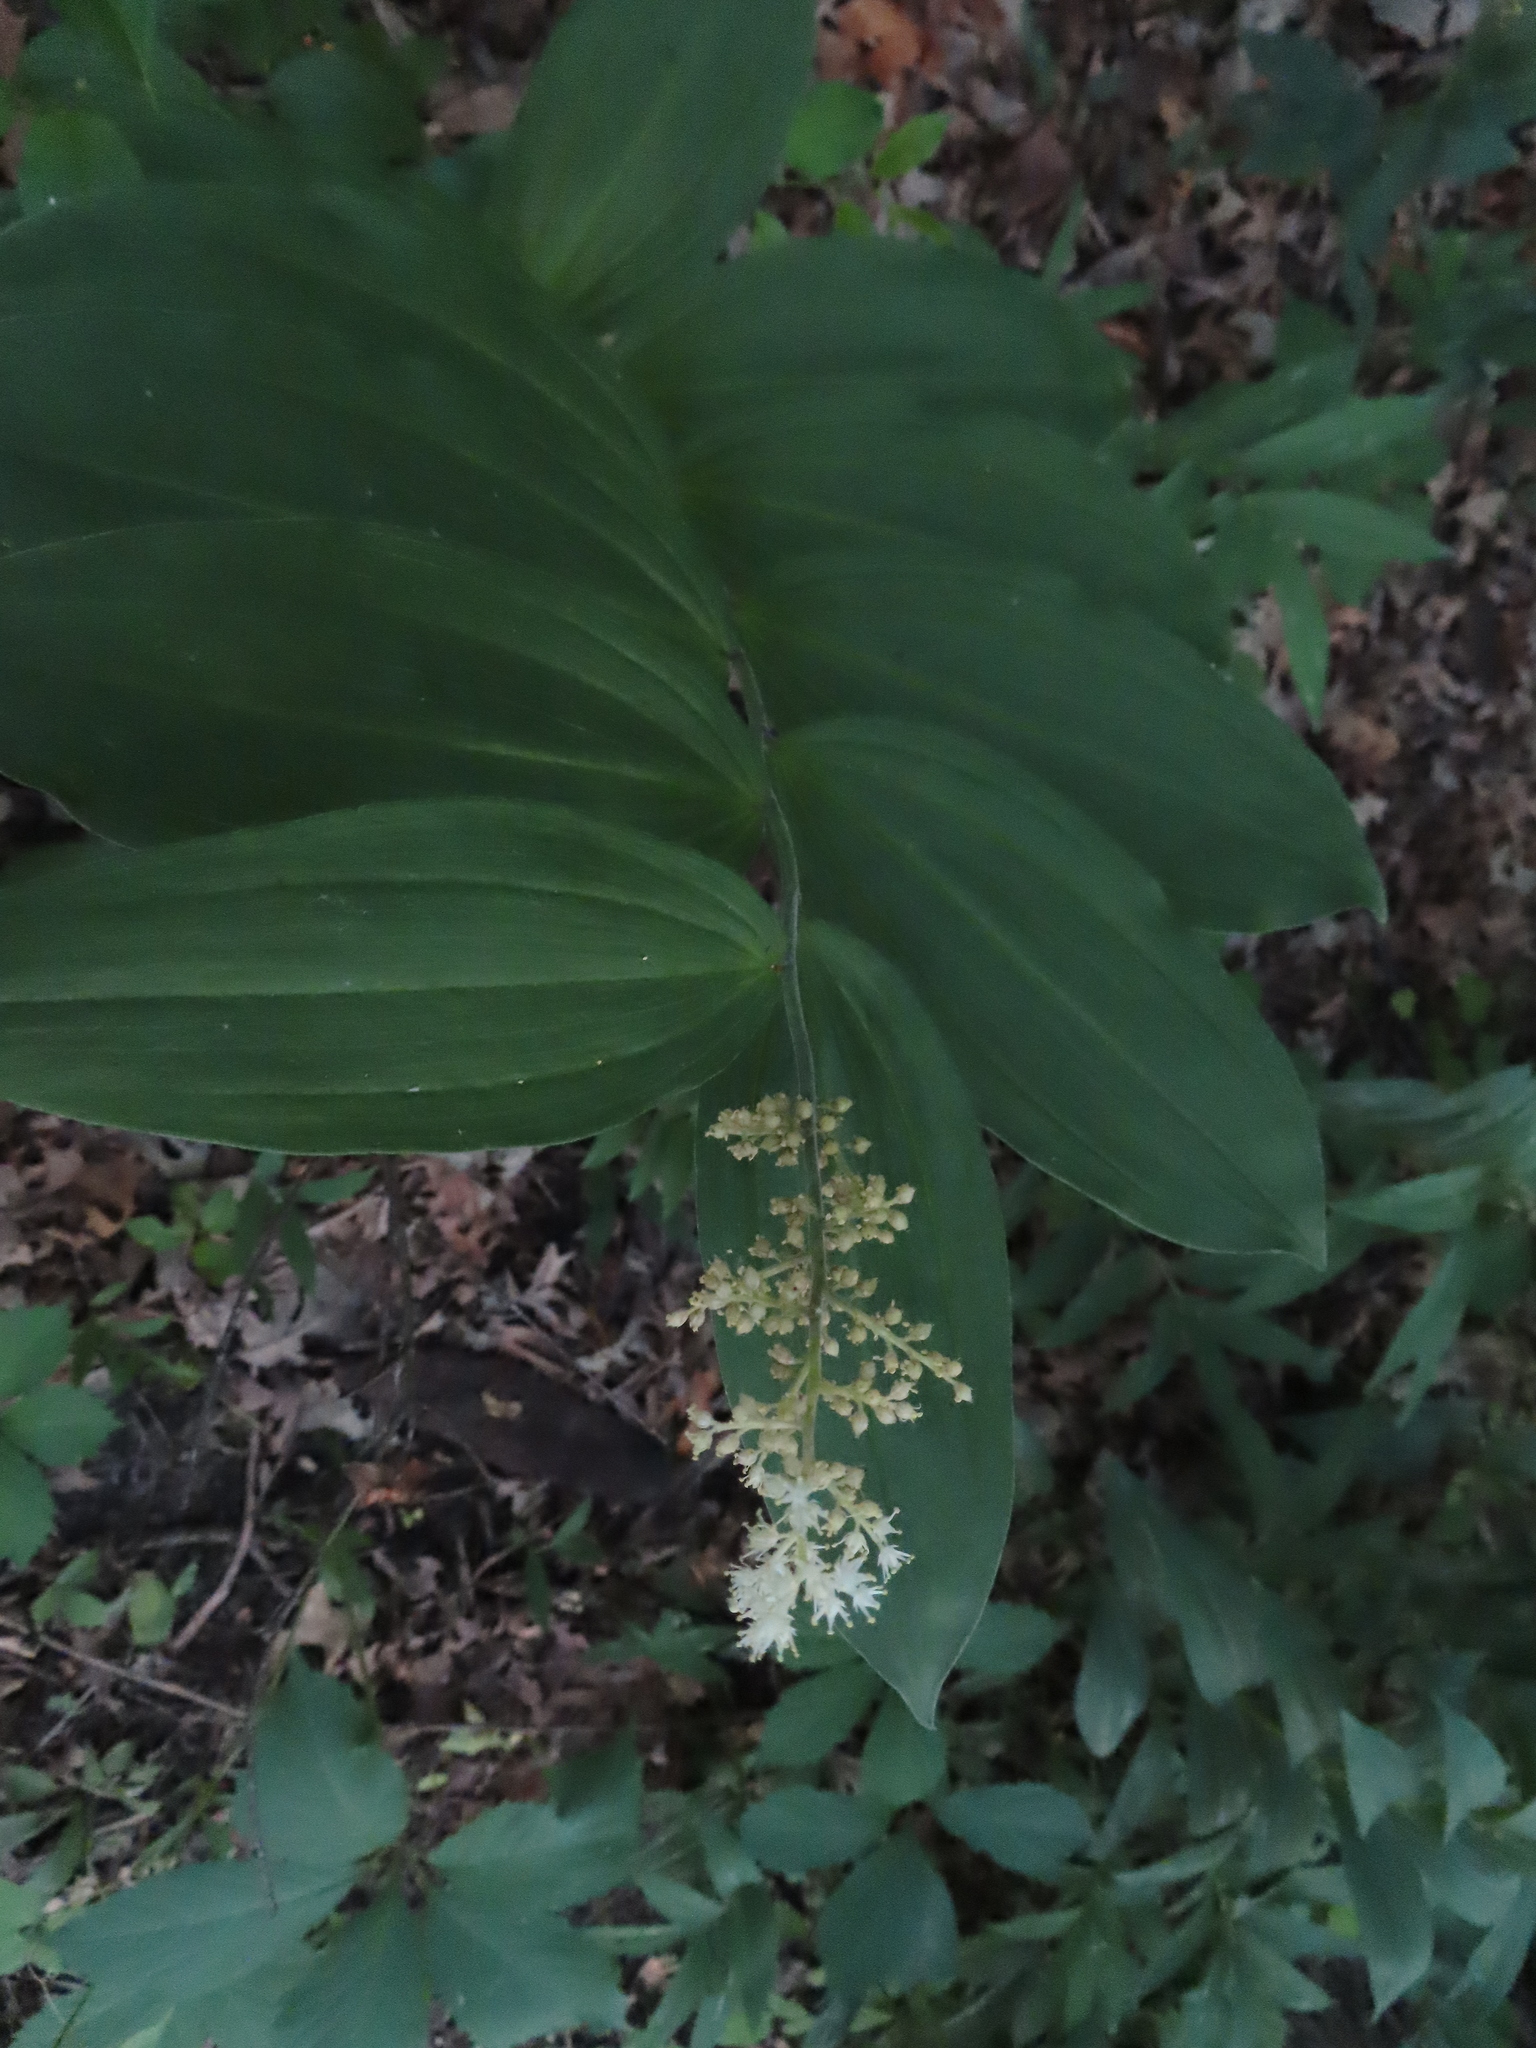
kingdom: Plantae
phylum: Tracheophyta
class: Liliopsida
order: Asparagales
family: Asparagaceae
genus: Maianthemum
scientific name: Maianthemum racemosum
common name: False spikenard
